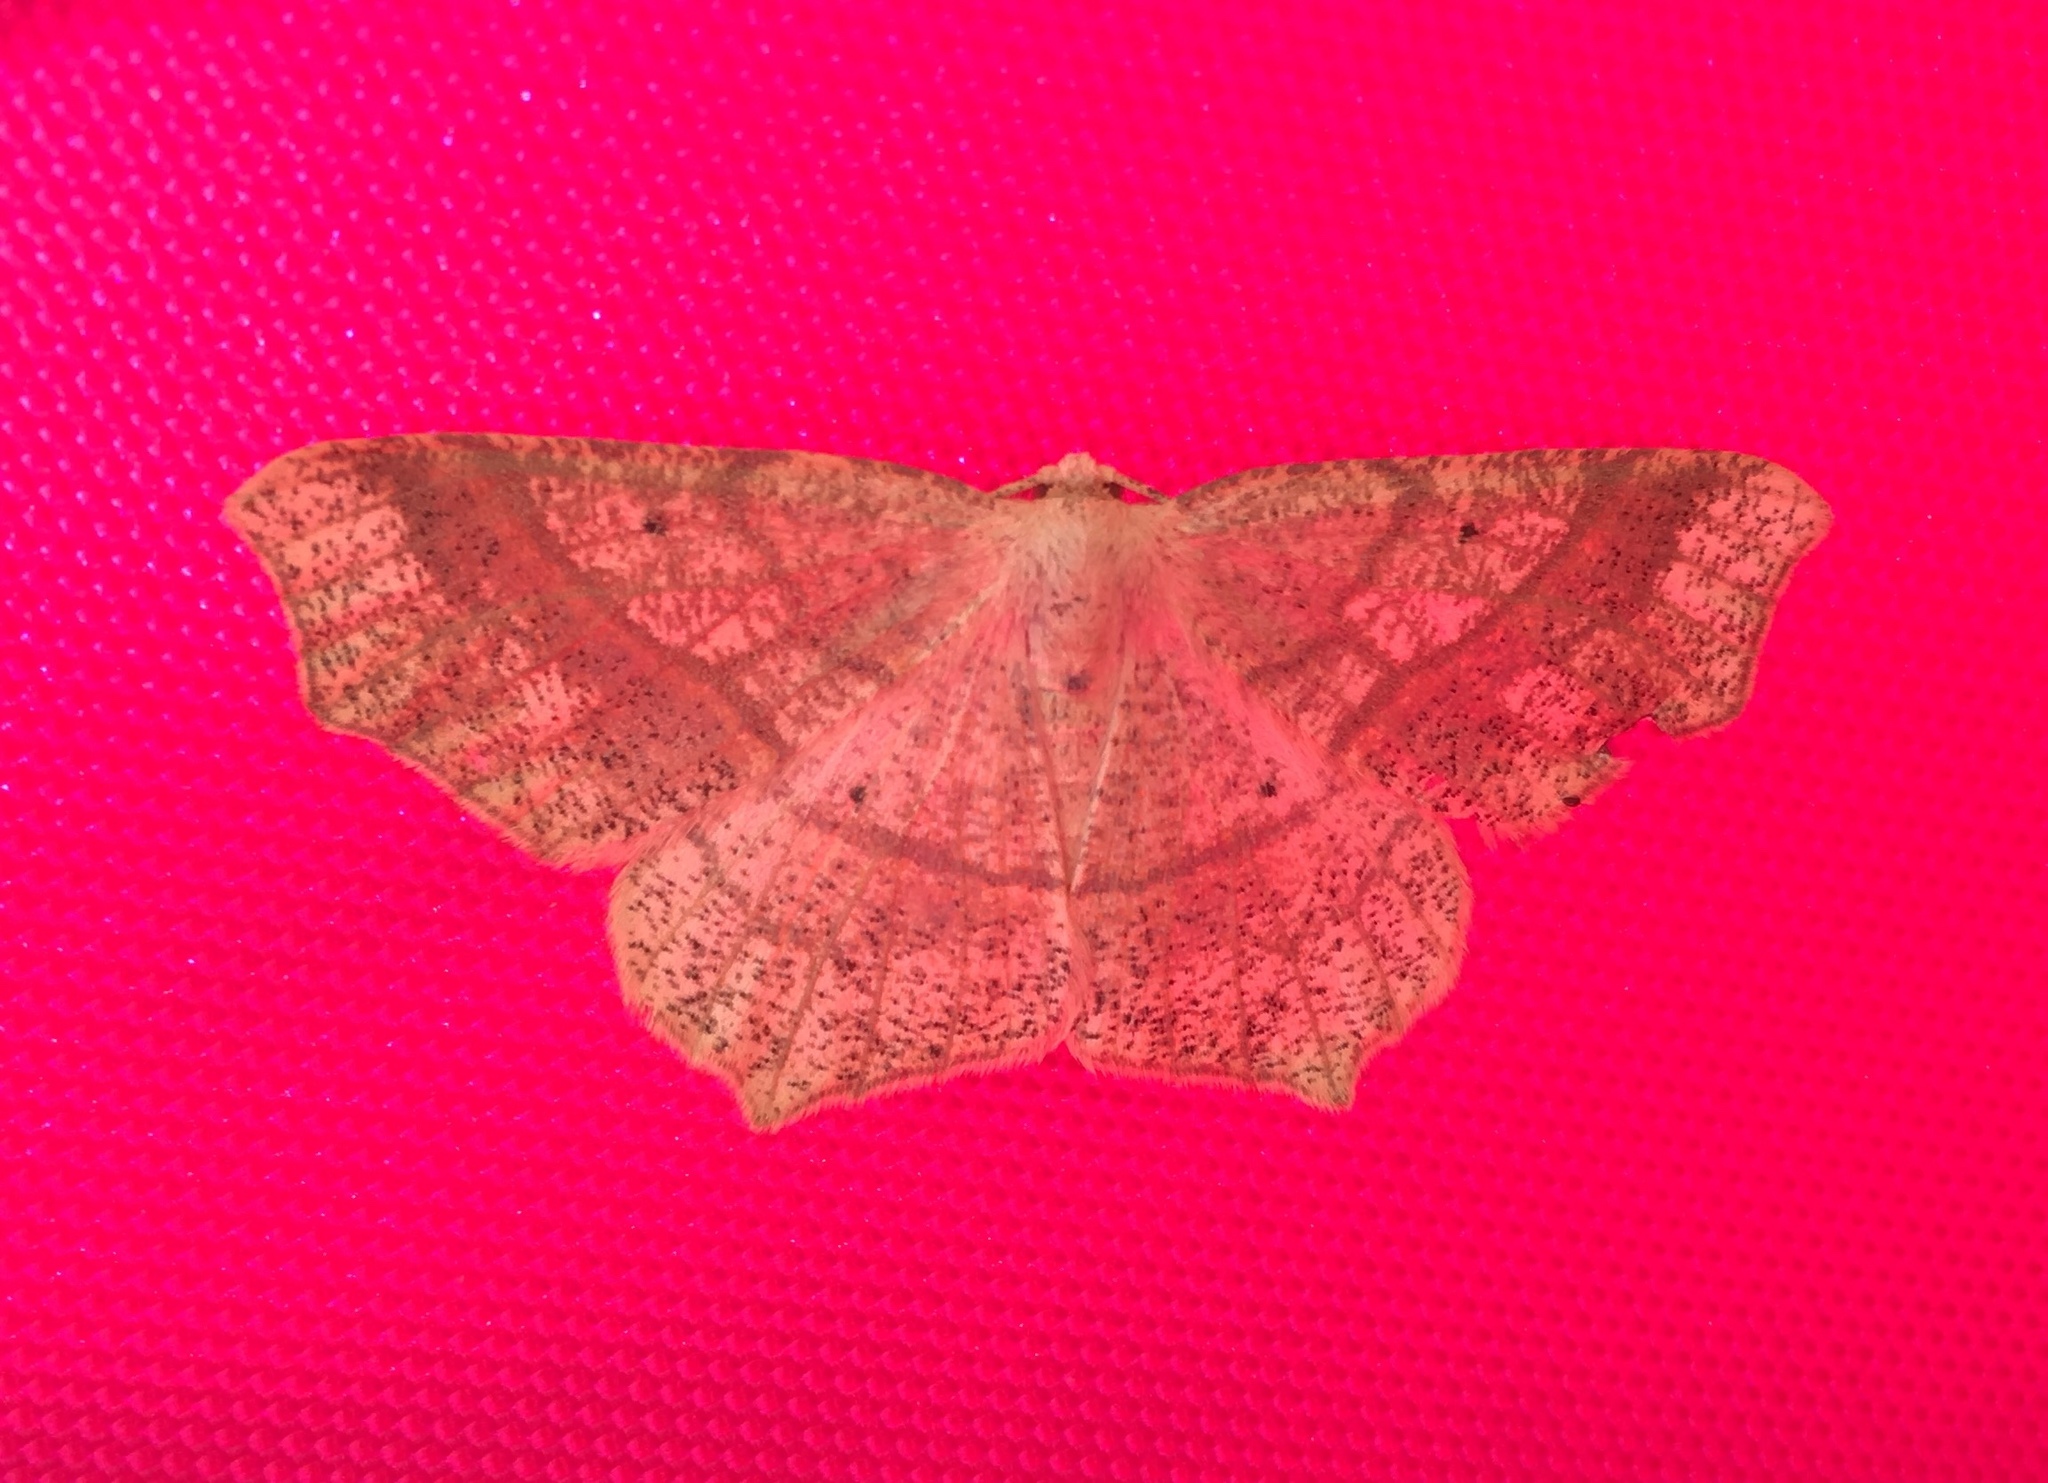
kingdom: Animalia
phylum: Arthropoda
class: Insecta
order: Lepidoptera
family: Geometridae
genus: Besma
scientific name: Besma quercivoraria
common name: Oak besma
